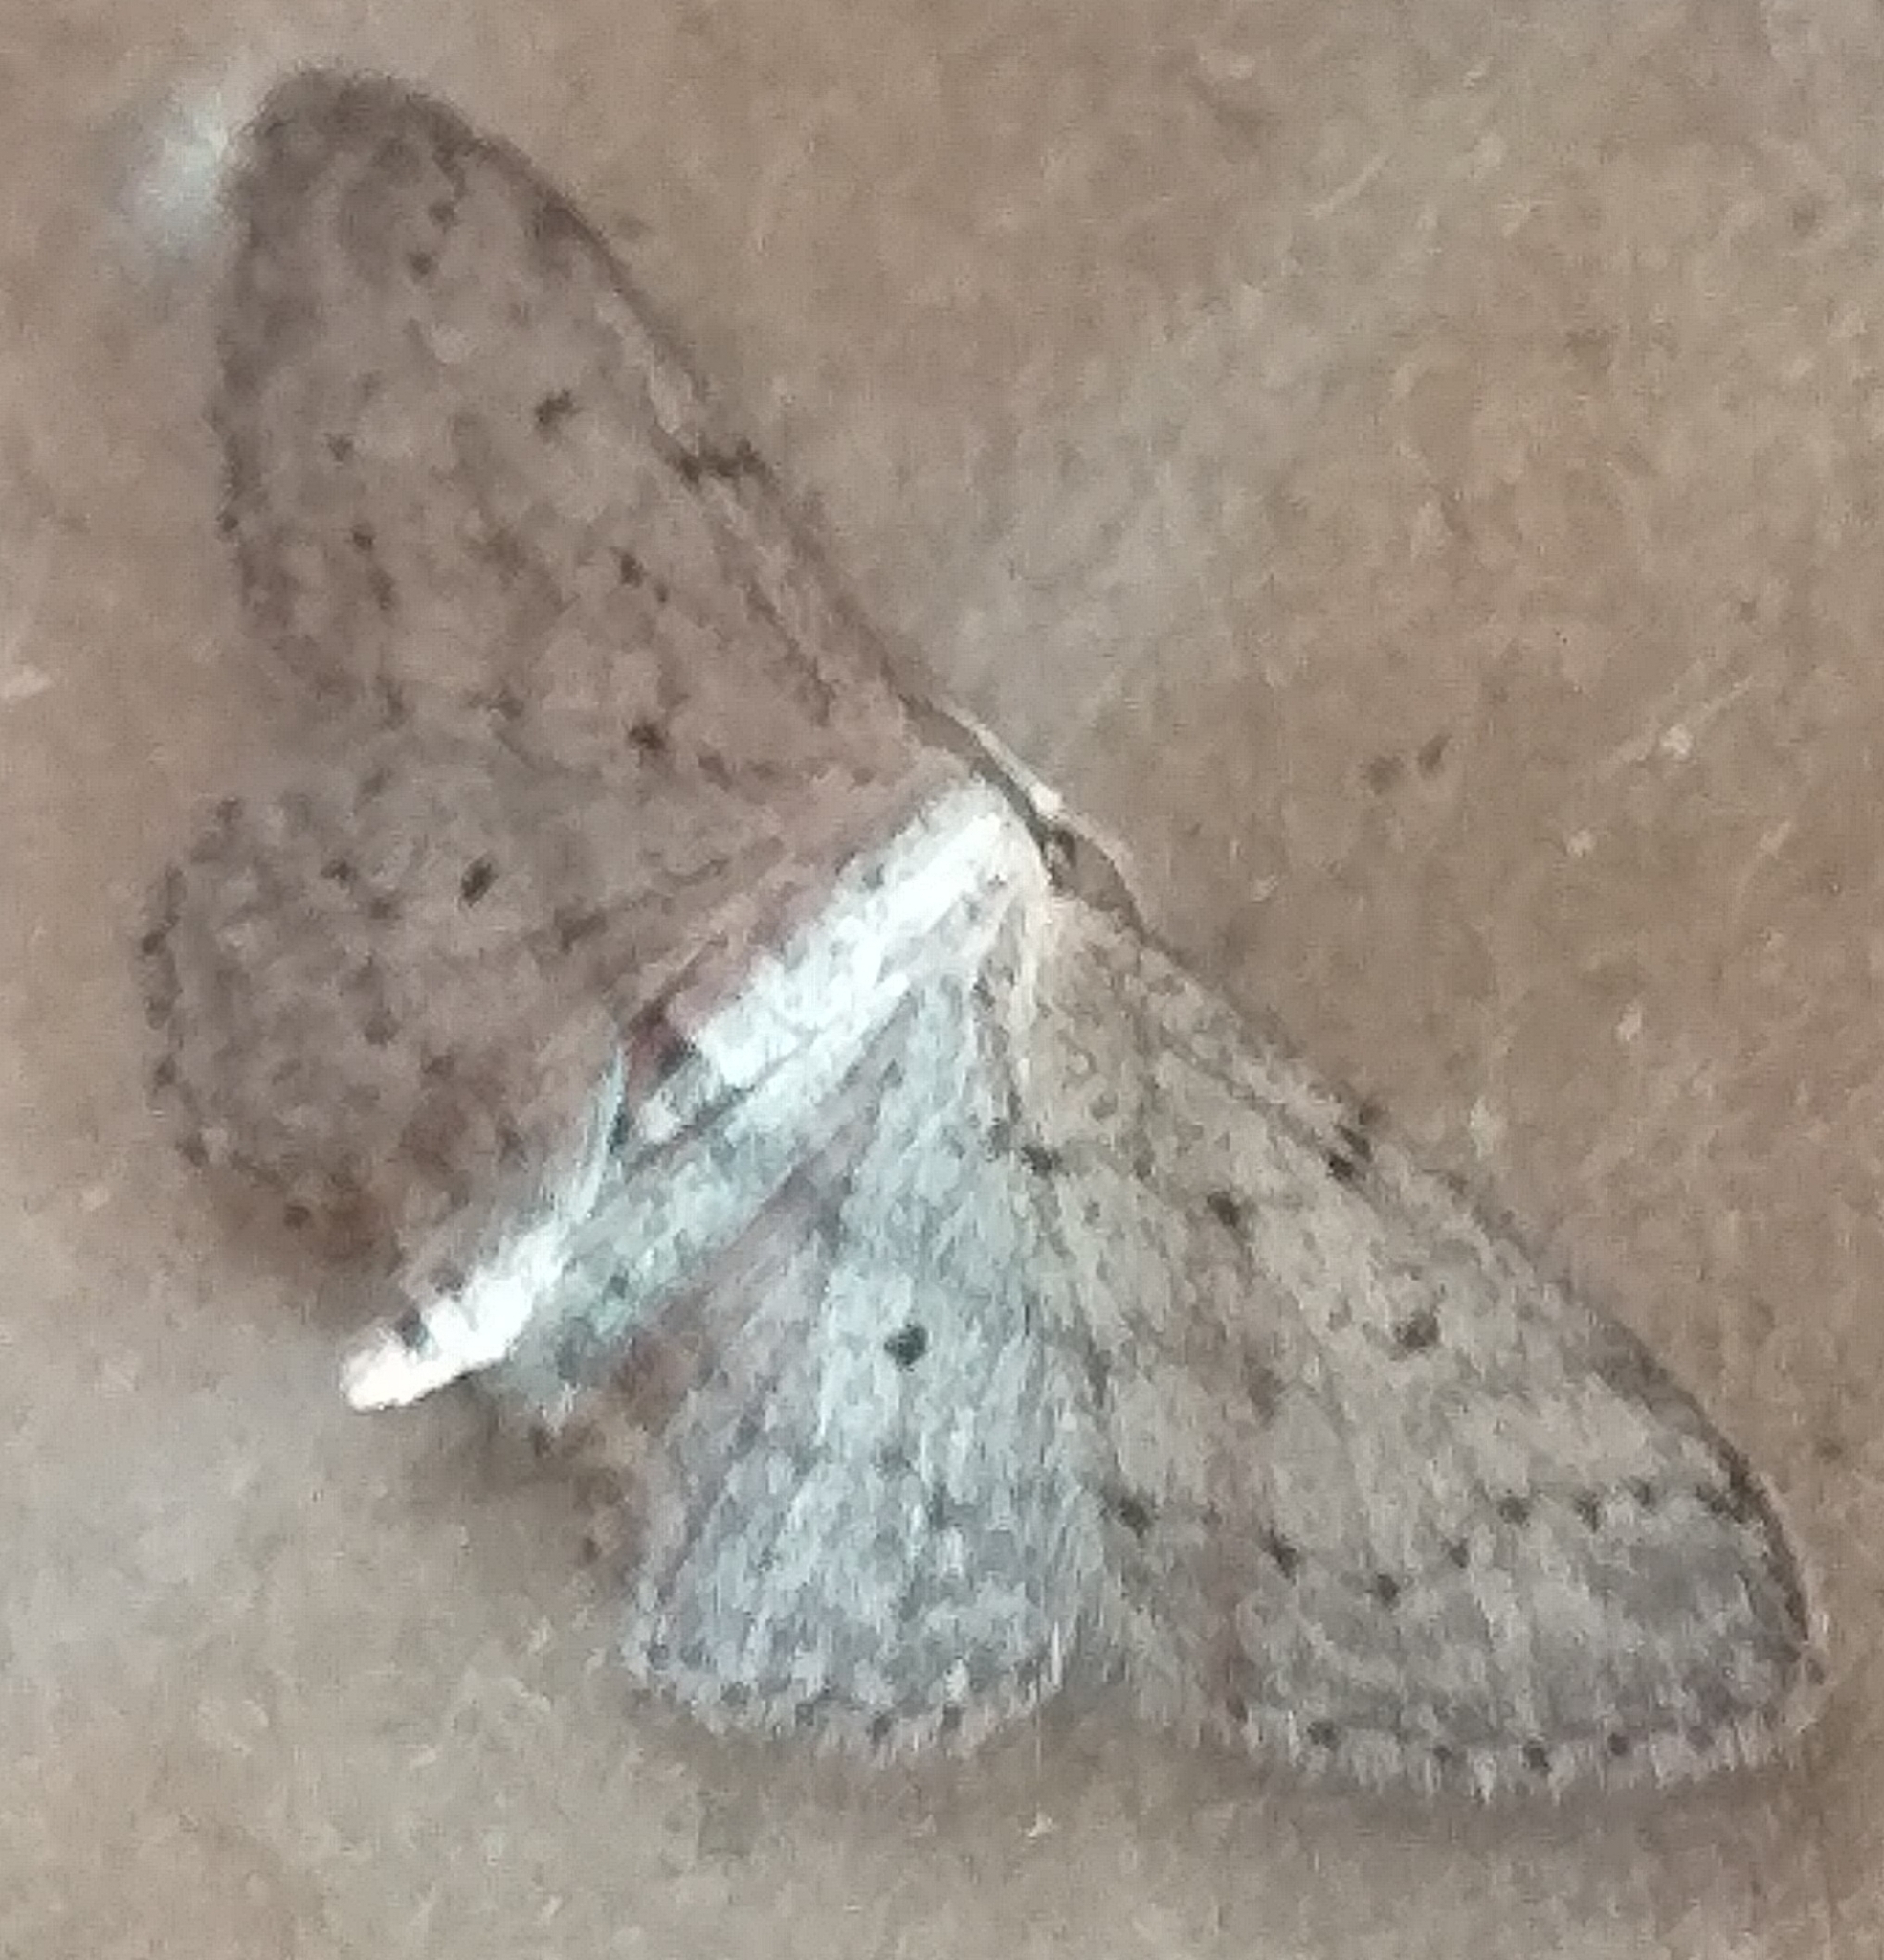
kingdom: Animalia
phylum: Arthropoda
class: Insecta
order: Lepidoptera
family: Geometridae
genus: Idaea
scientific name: Idaea seriata
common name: Small dusty wave
